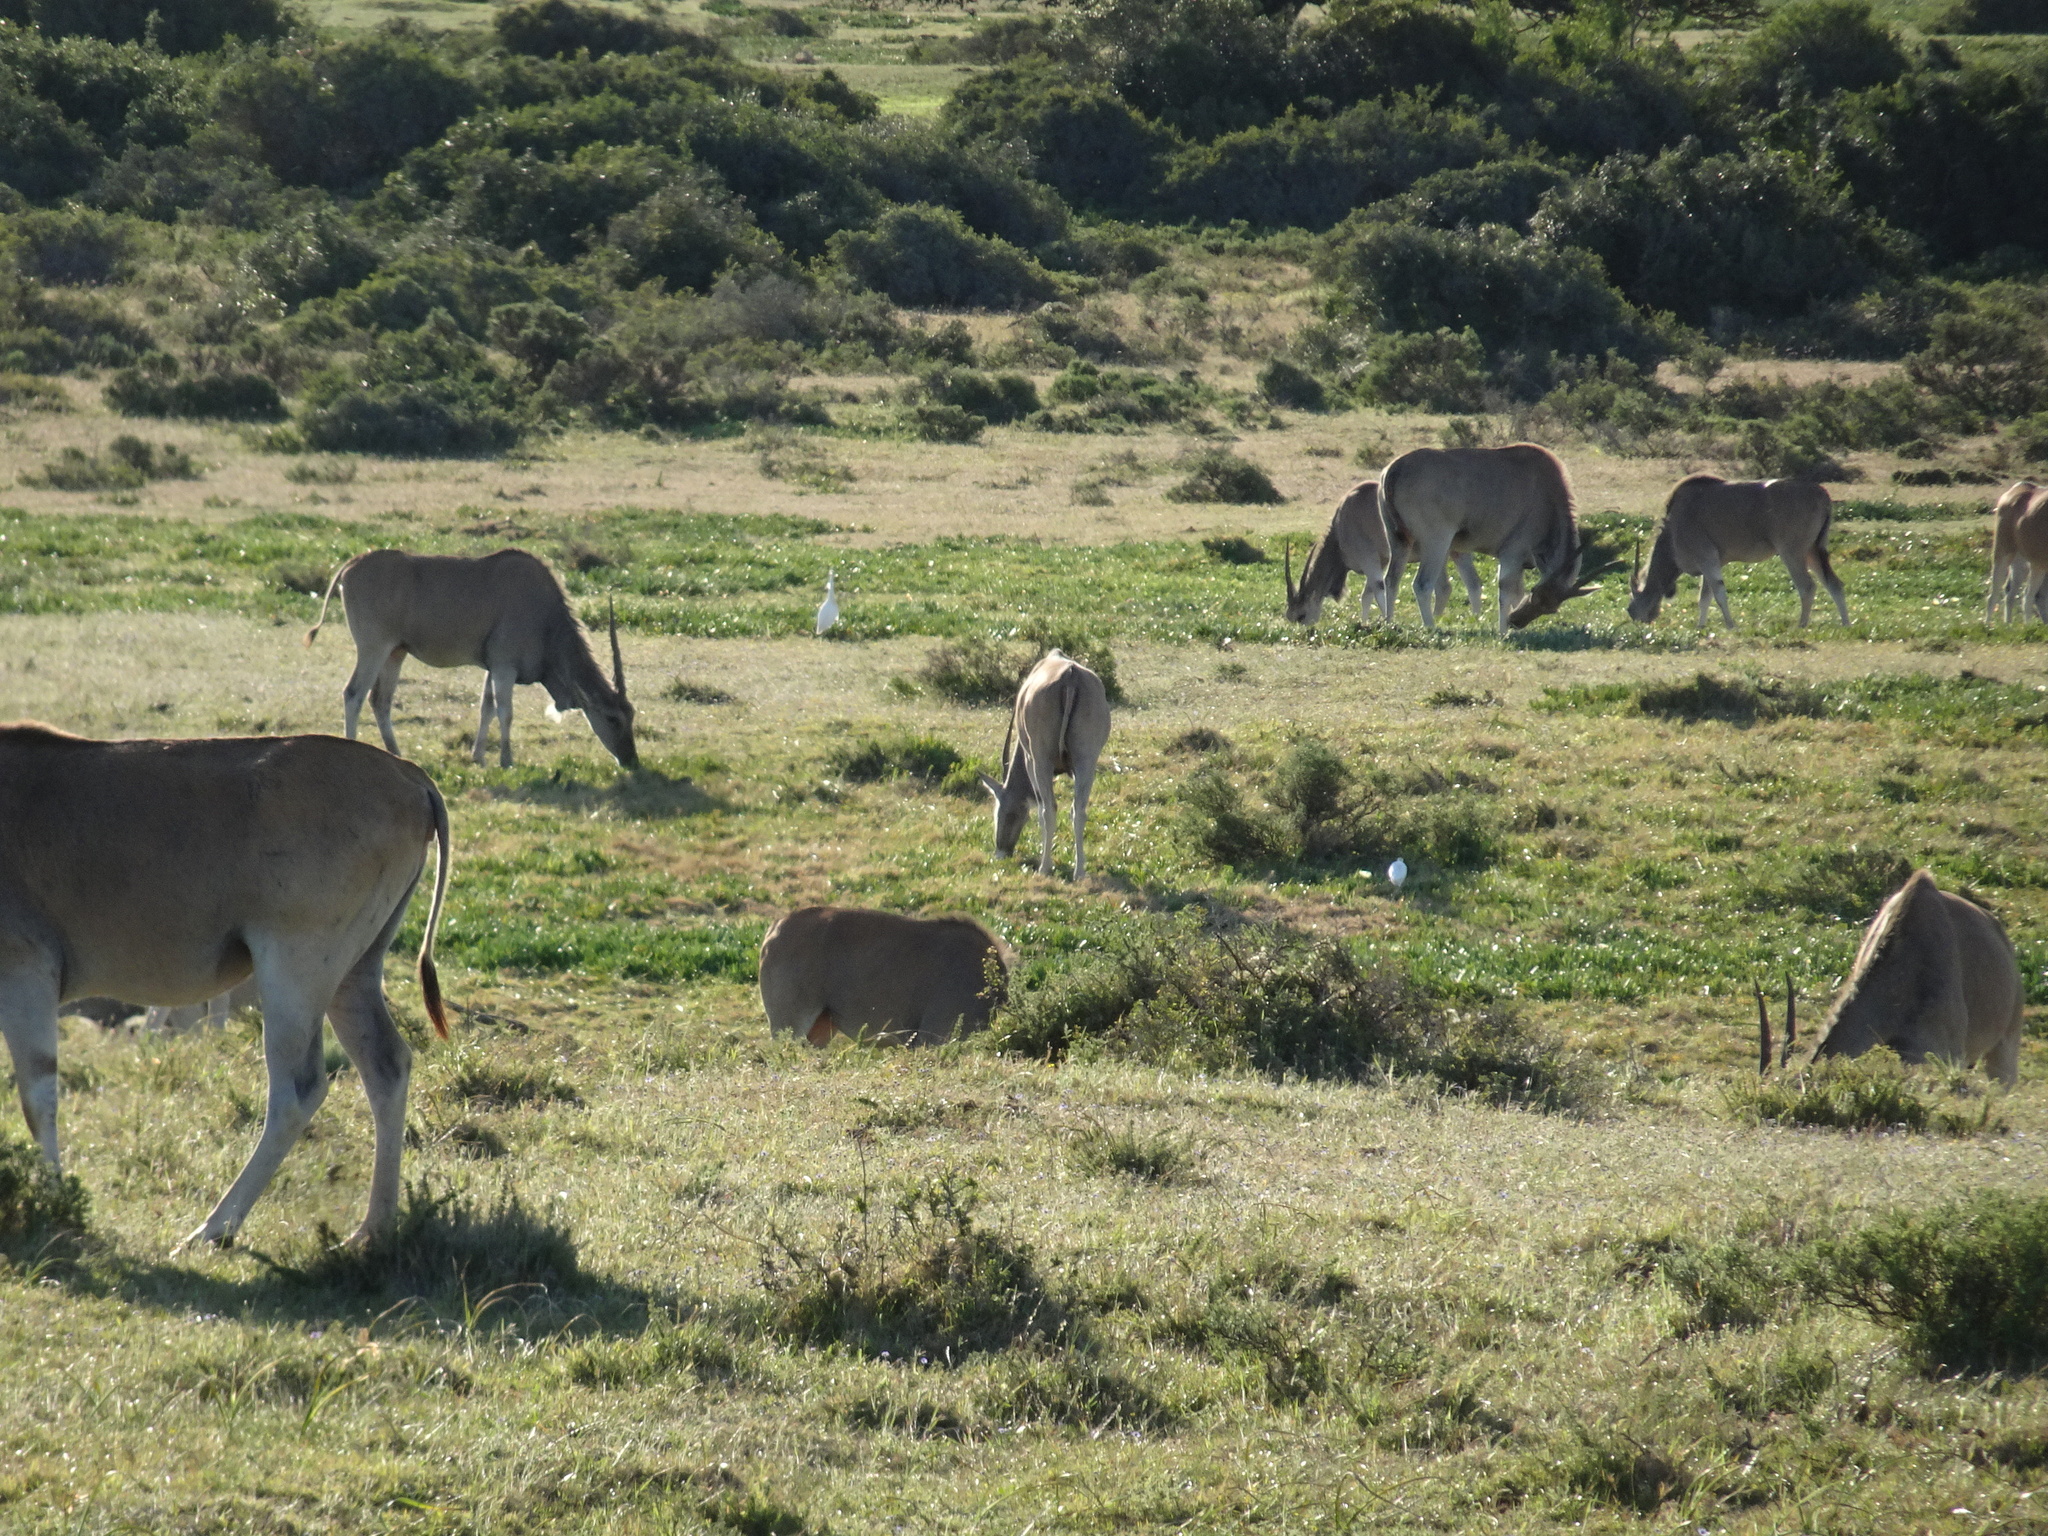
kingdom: Animalia
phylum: Chordata
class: Mammalia
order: Artiodactyla
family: Bovidae
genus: Taurotragus
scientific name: Taurotragus oryx
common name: Common eland
